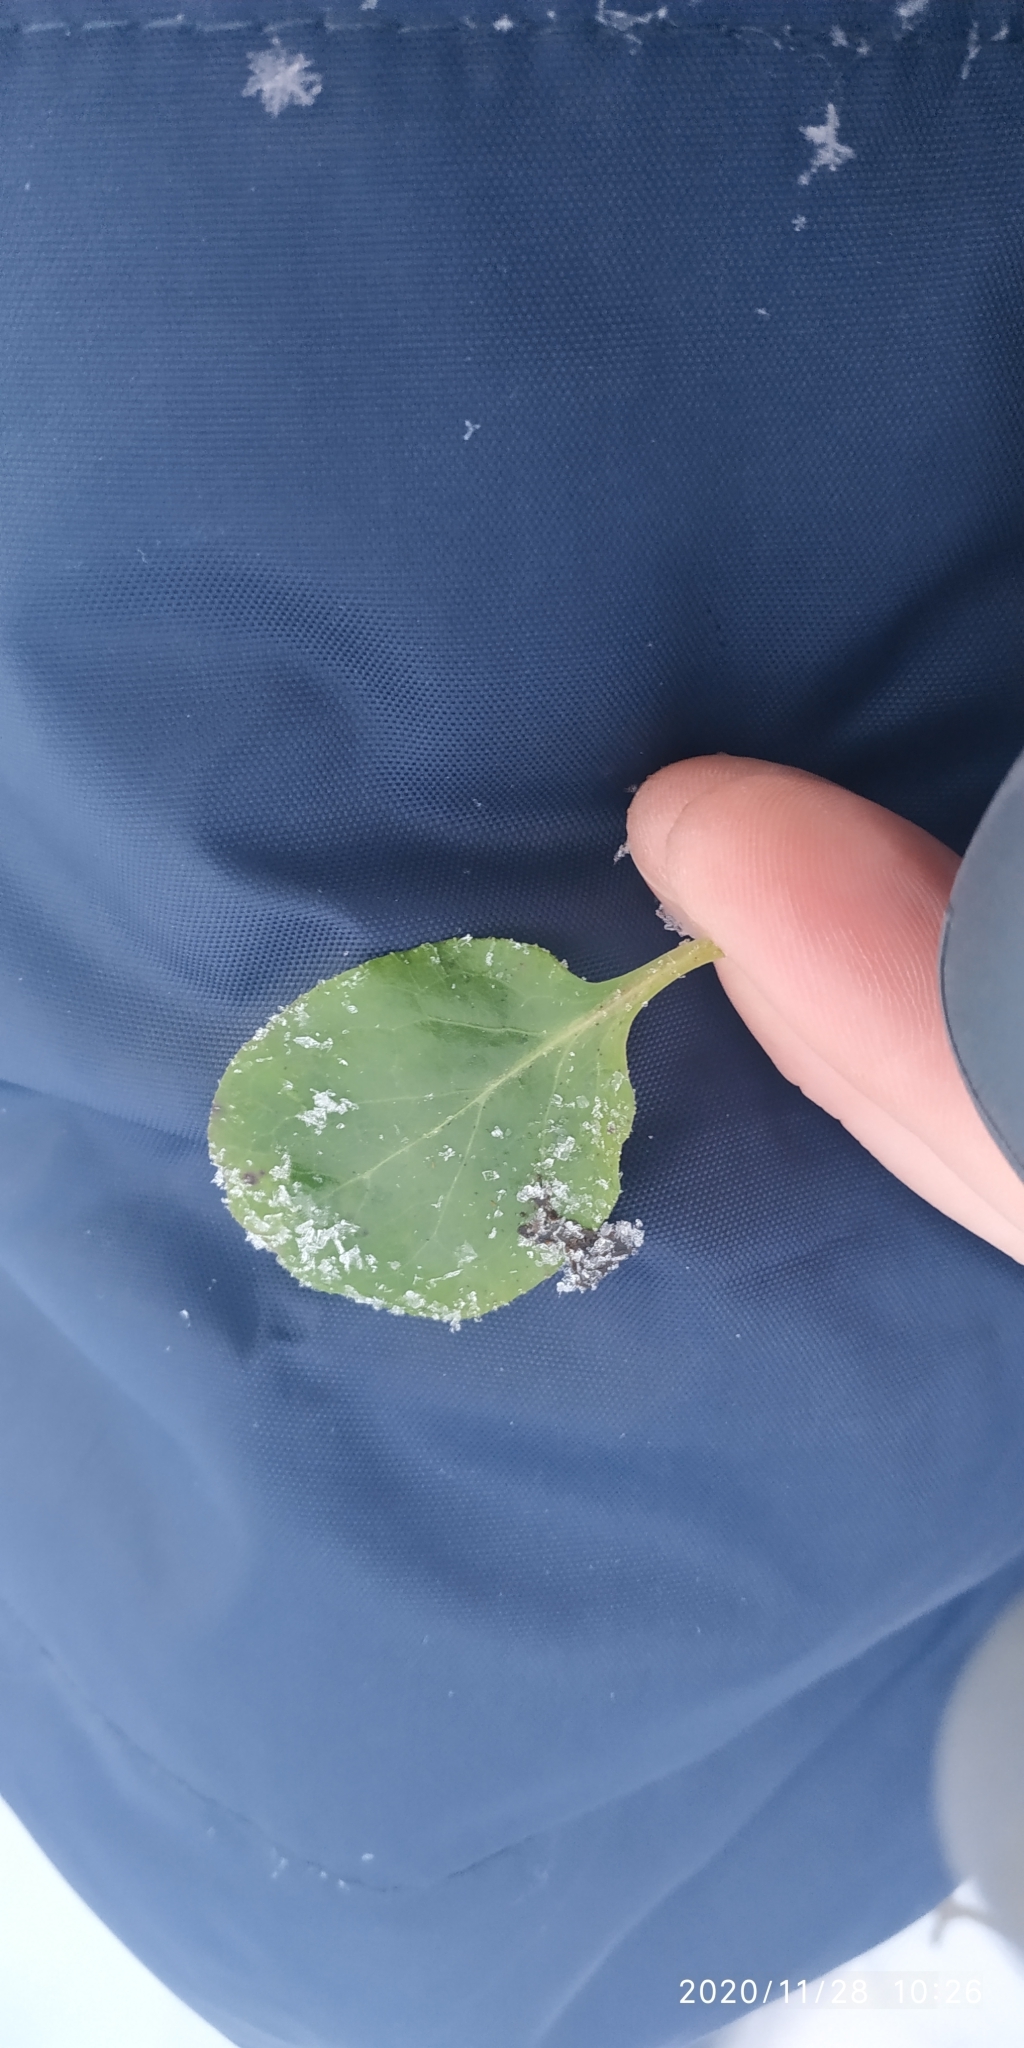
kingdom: Plantae
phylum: Tracheophyta
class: Magnoliopsida
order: Ericales
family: Ericaceae
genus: Pyrola
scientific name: Pyrola
